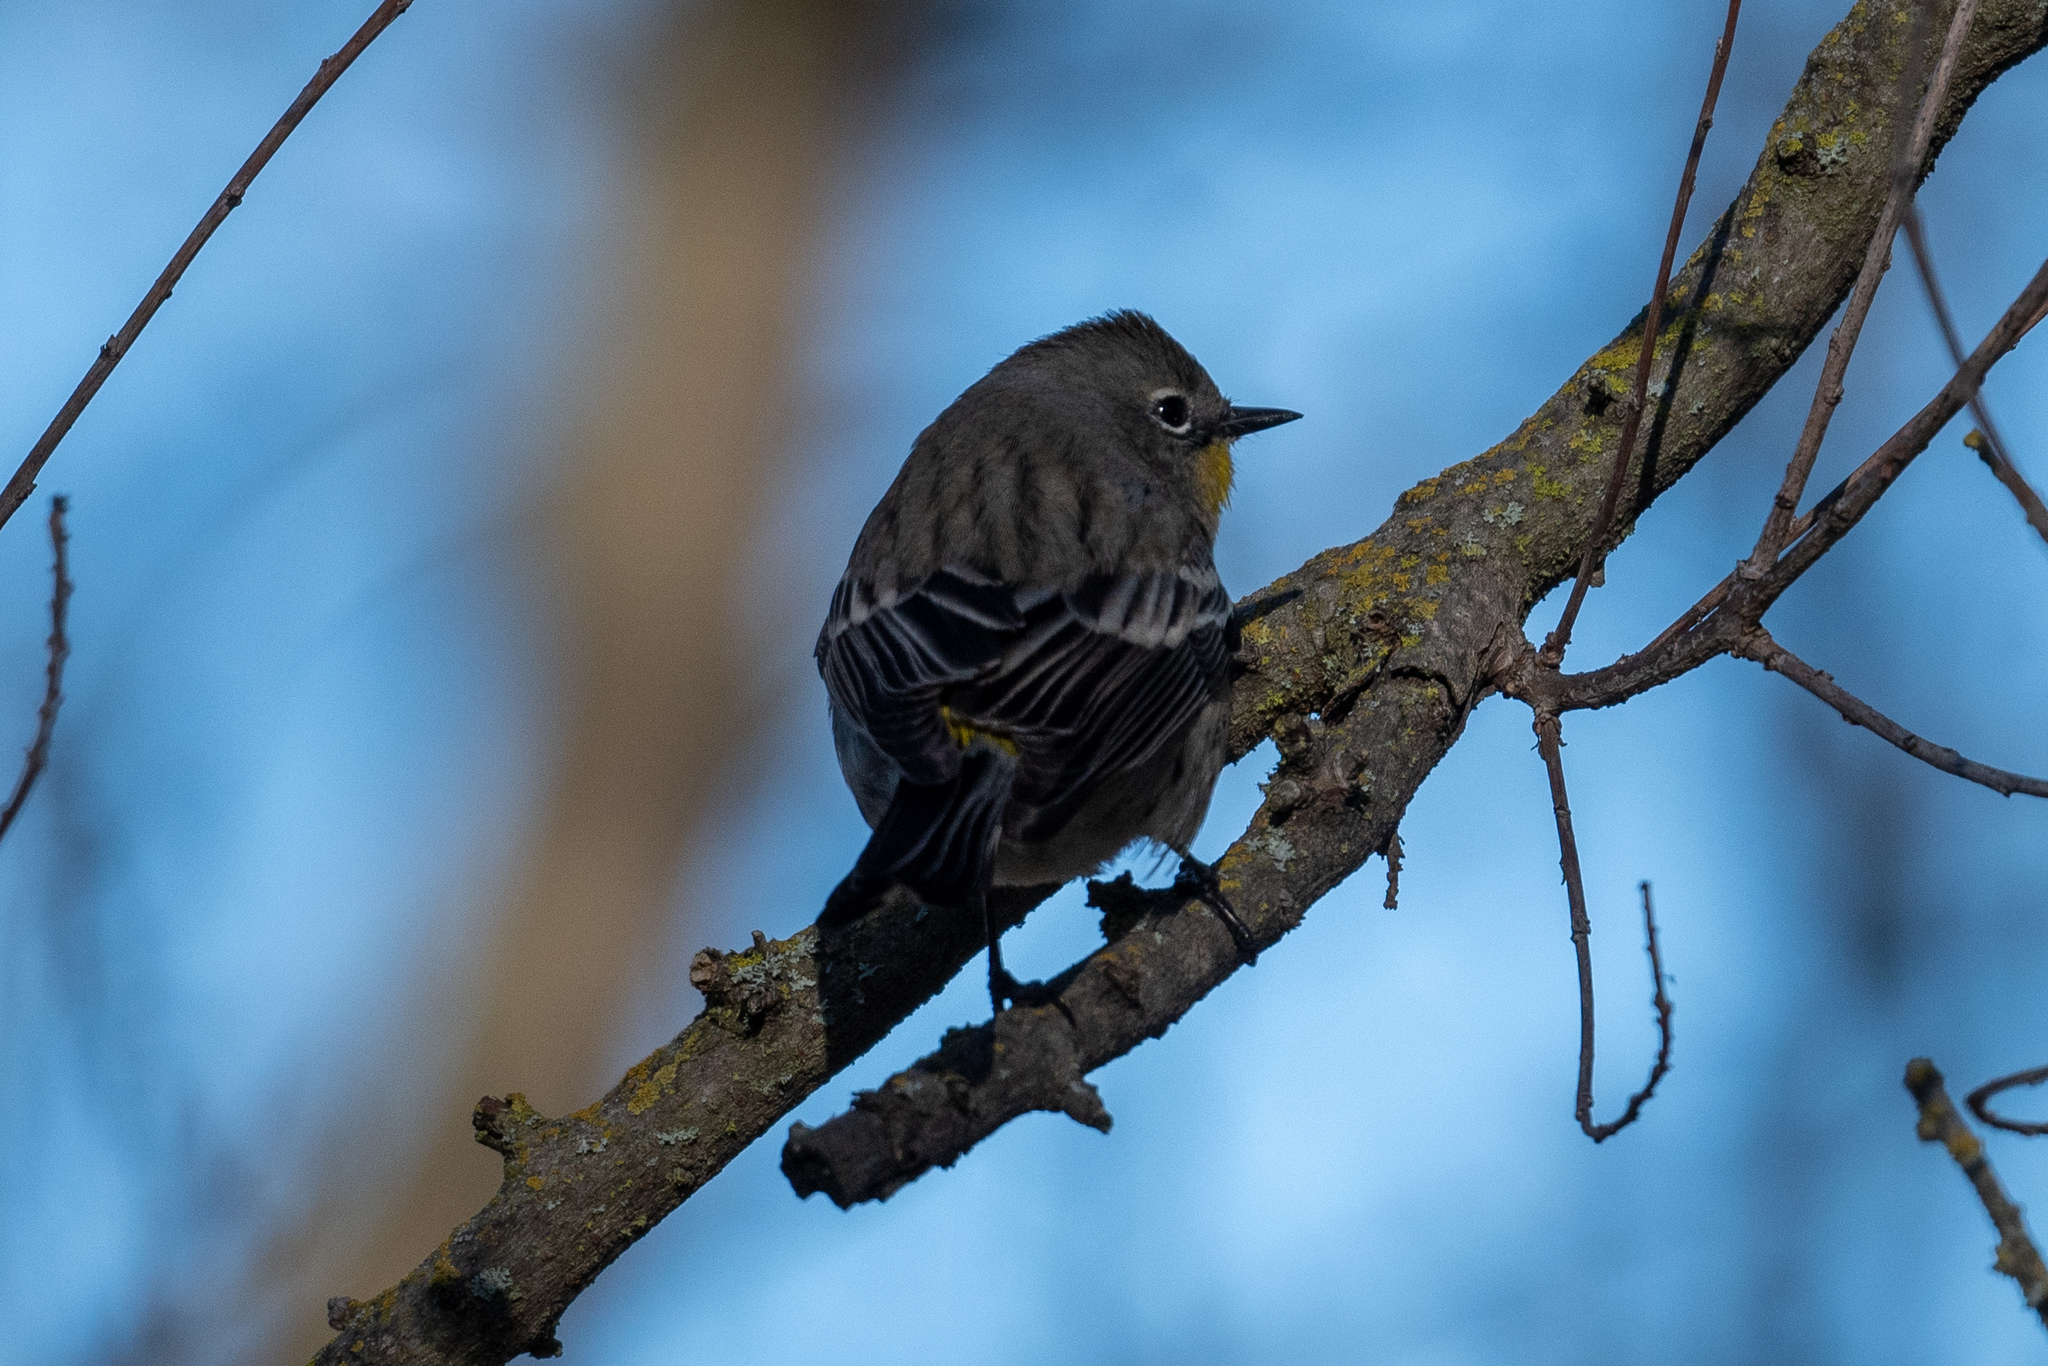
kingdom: Animalia
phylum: Chordata
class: Aves
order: Passeriformes
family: Parulidae
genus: Setophaga
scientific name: Setophaga coronata
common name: Myrtle warbler
